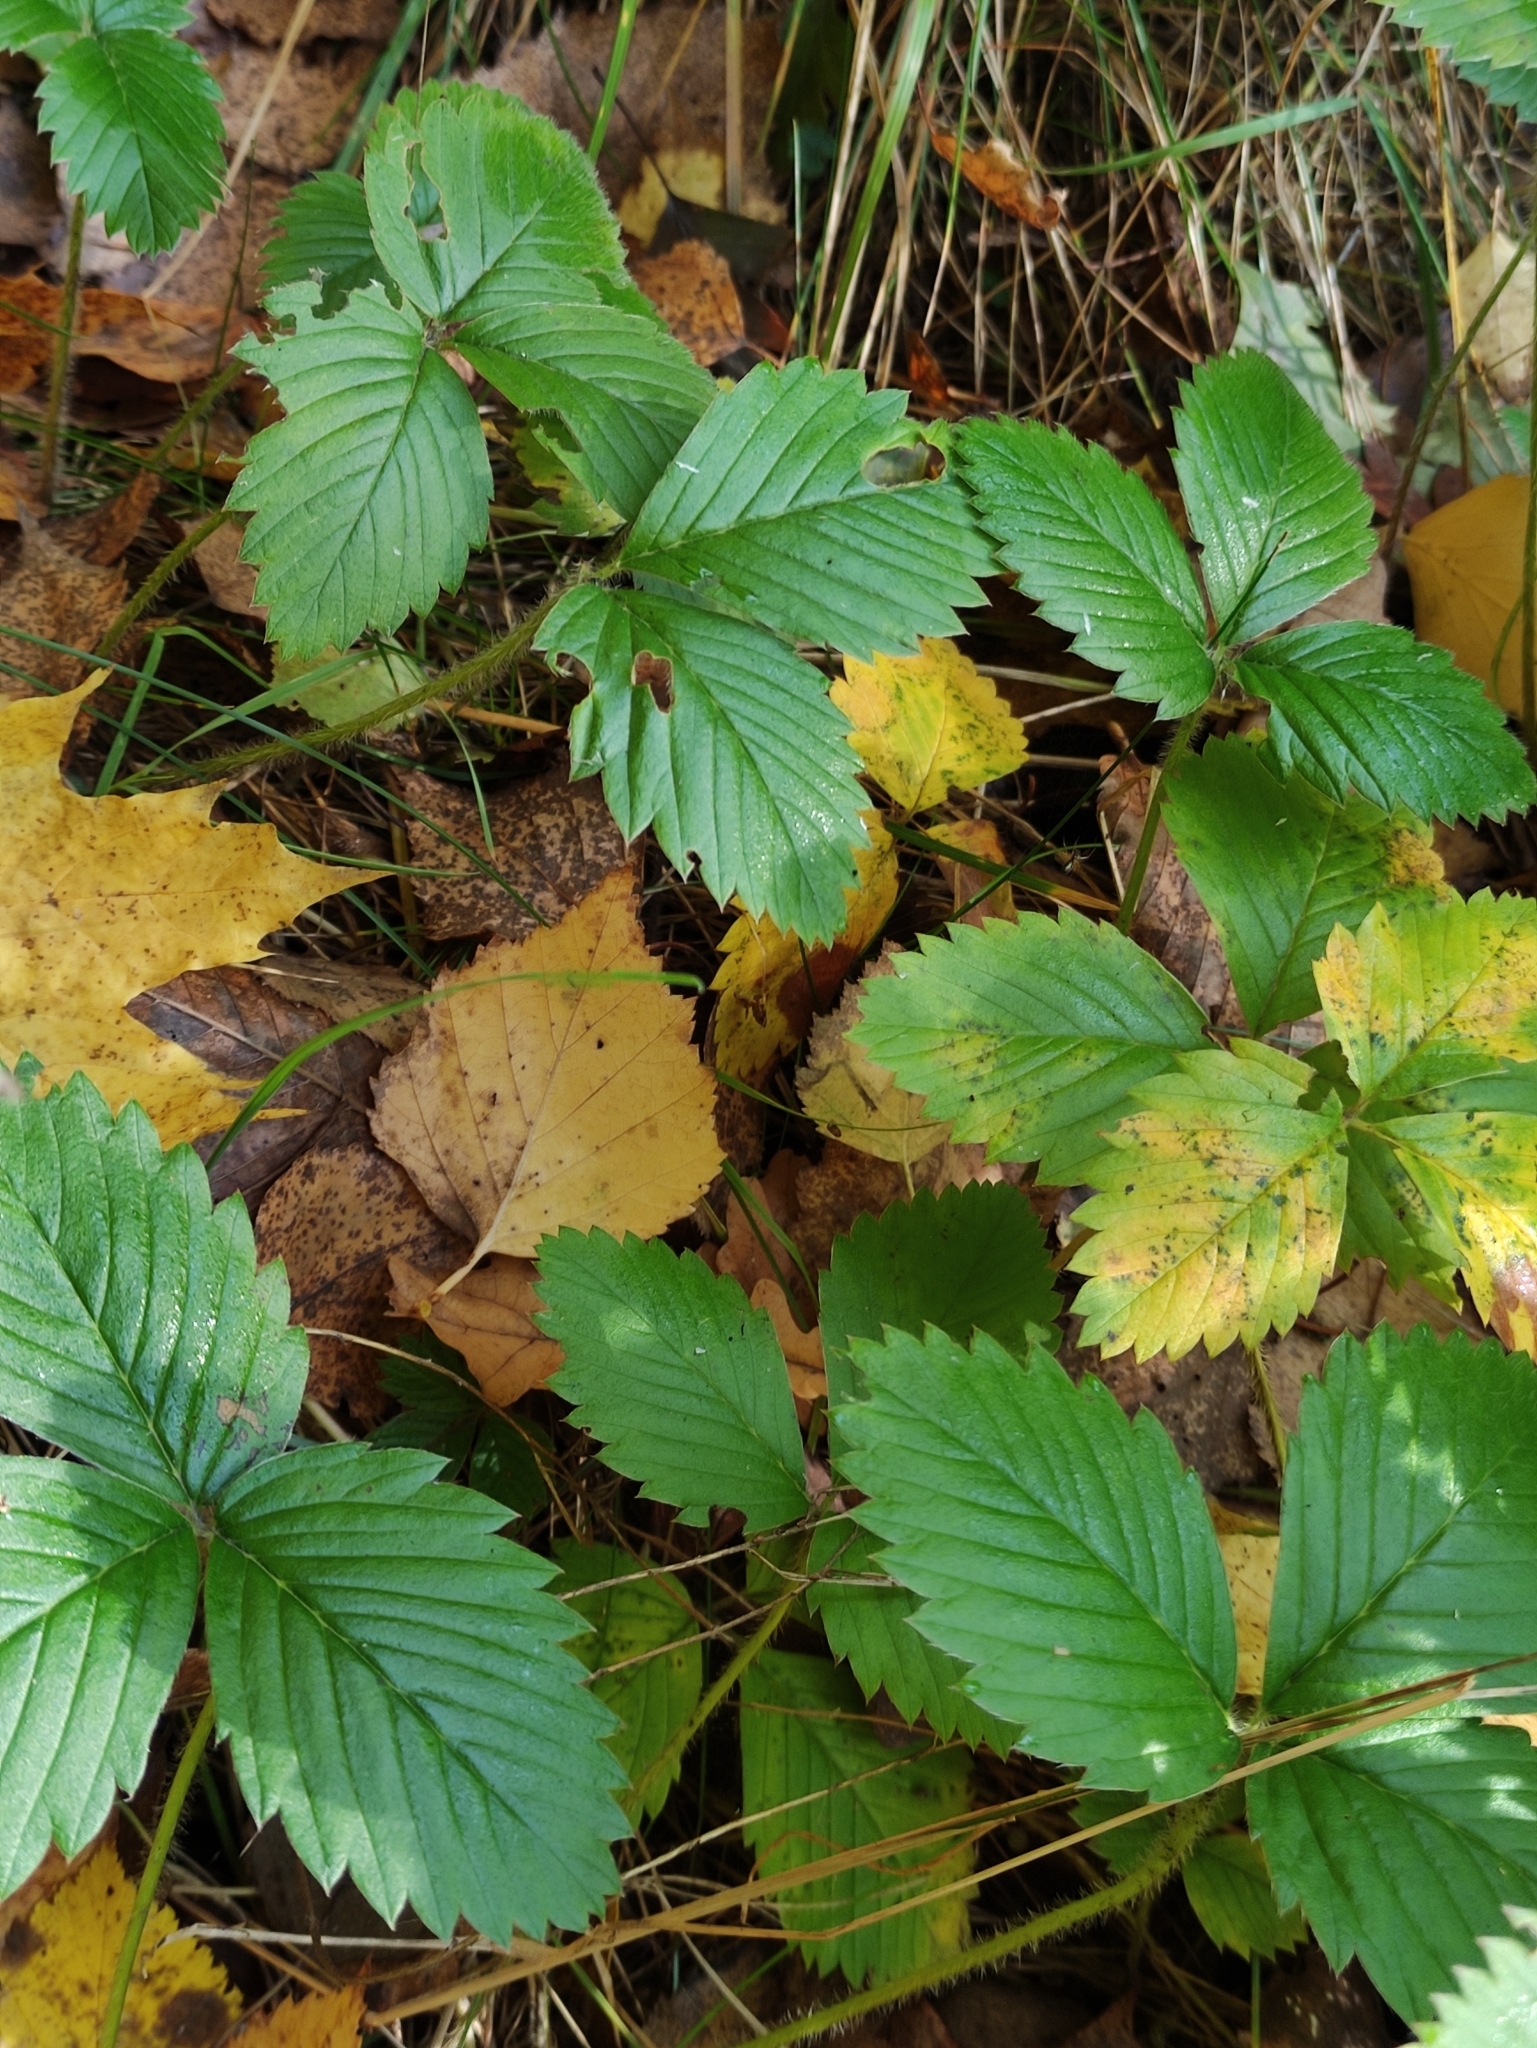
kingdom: Plantae
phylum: Tracheophyta
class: Magnoliopsida
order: Rosales
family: Rosaceae
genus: Fragaria
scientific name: Fragaria moschata
